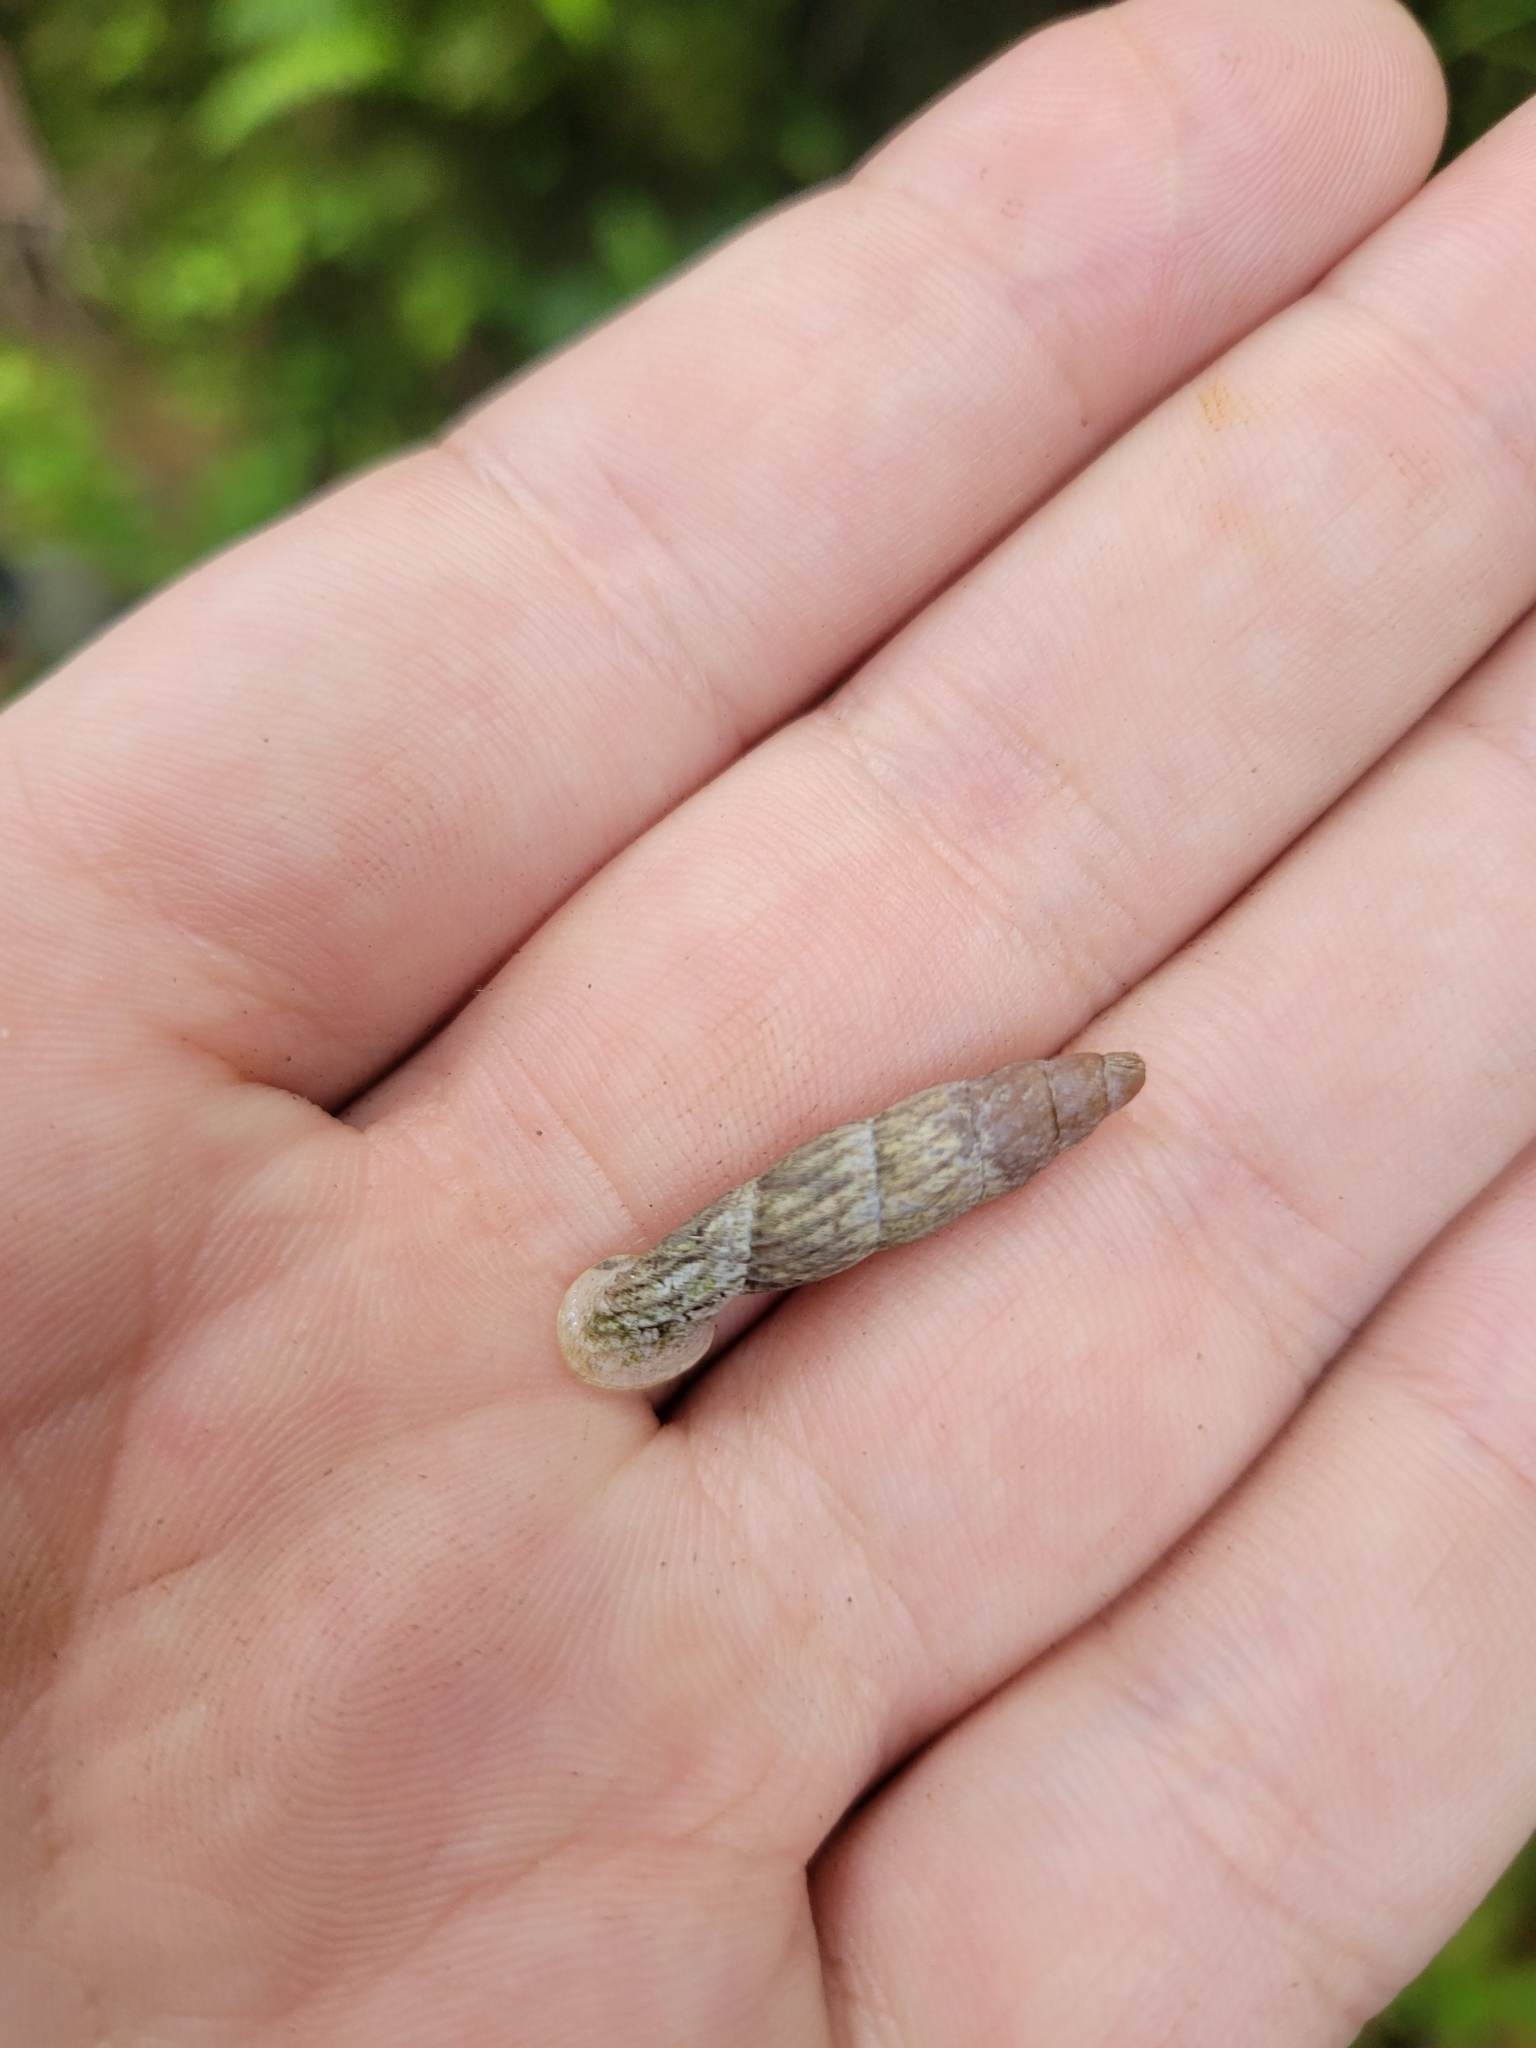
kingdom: Animalia
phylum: Mollusca
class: Gastropoda
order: Stylommatophora
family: Clausiliidae
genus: Nenia
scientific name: Nenia tridens
